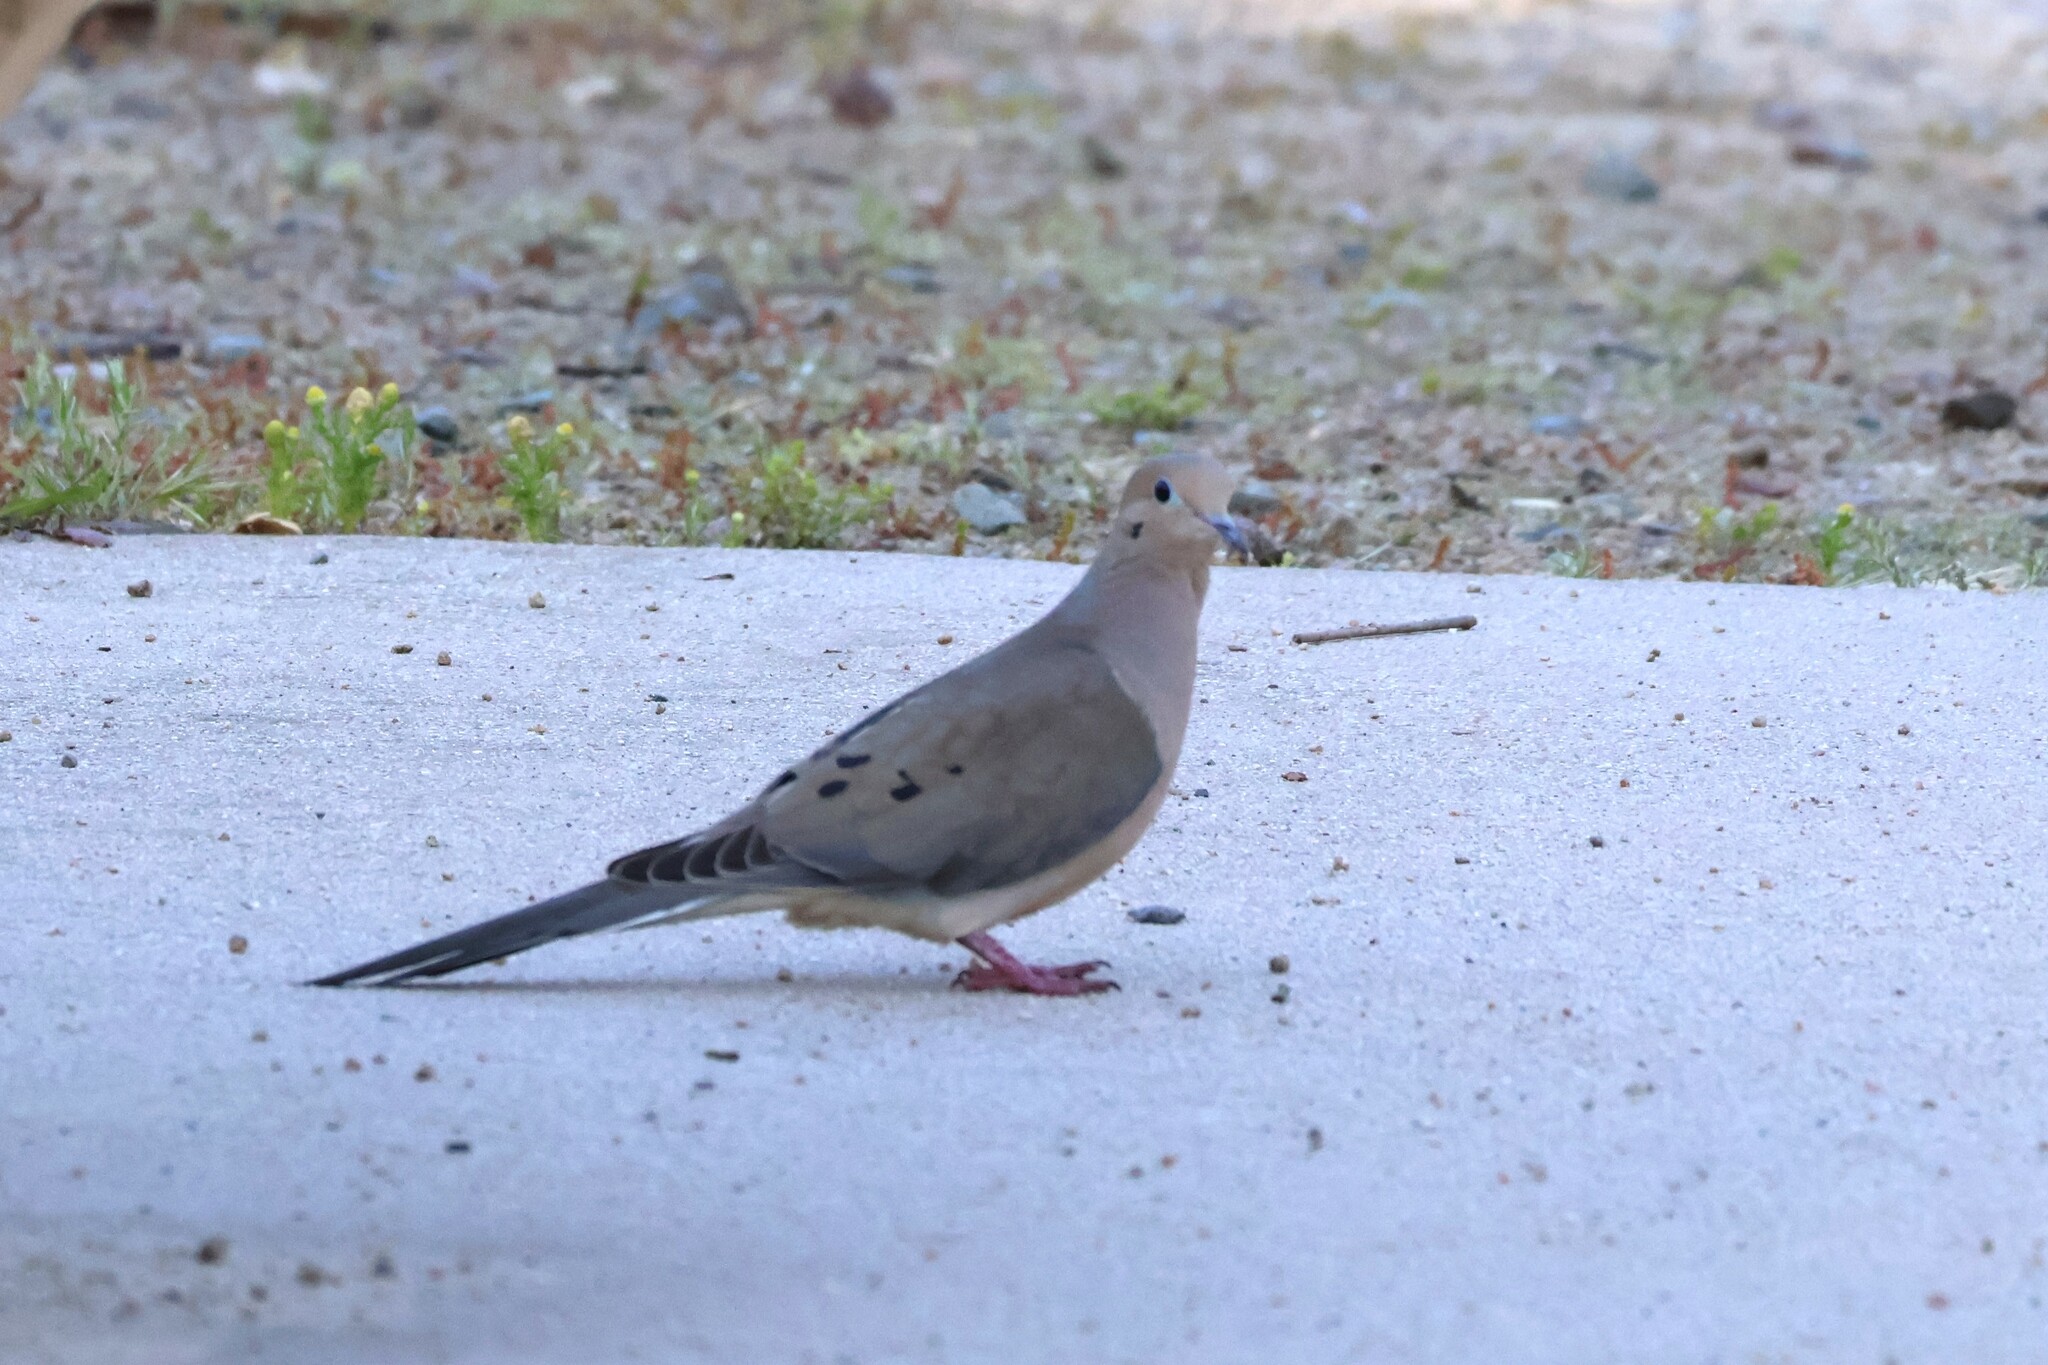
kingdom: Animalia
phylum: Chordata
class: Aves
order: Columbiformes
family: Columbidae
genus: Zenaida
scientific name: Zenaida macroura
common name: Mourning dove
